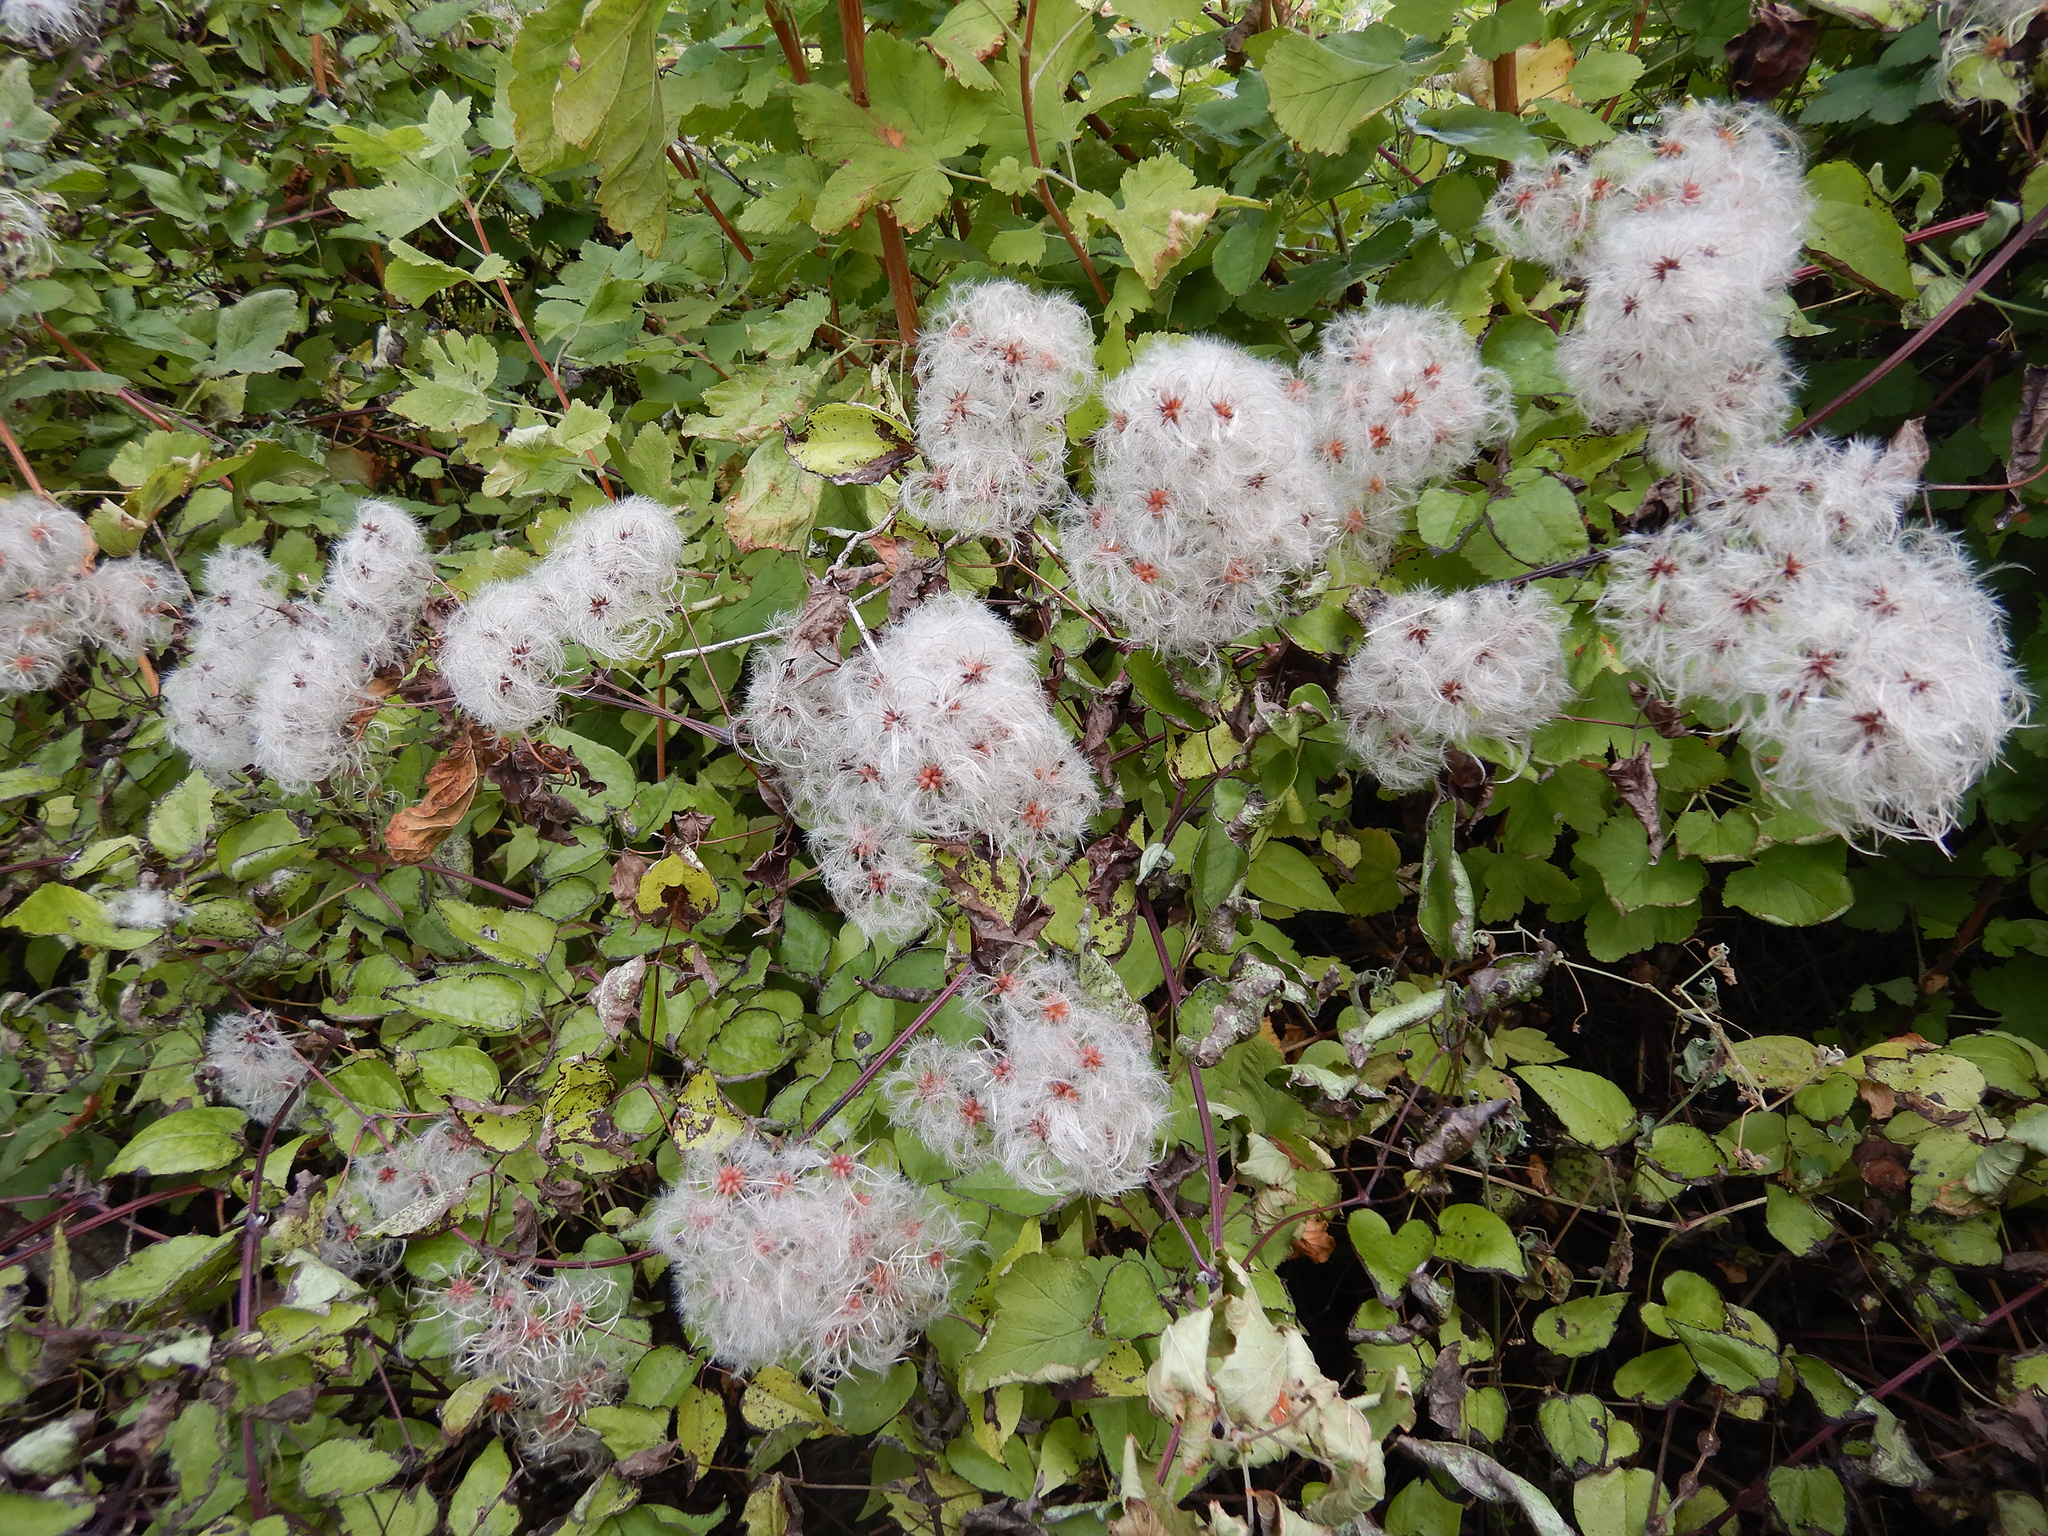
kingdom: Plantae
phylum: Tracheophyta
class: Magnoliopsida
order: Ranunculales
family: Ranunculaceae
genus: Clematis
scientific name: Clematis vitalba
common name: Evergreen clematis
